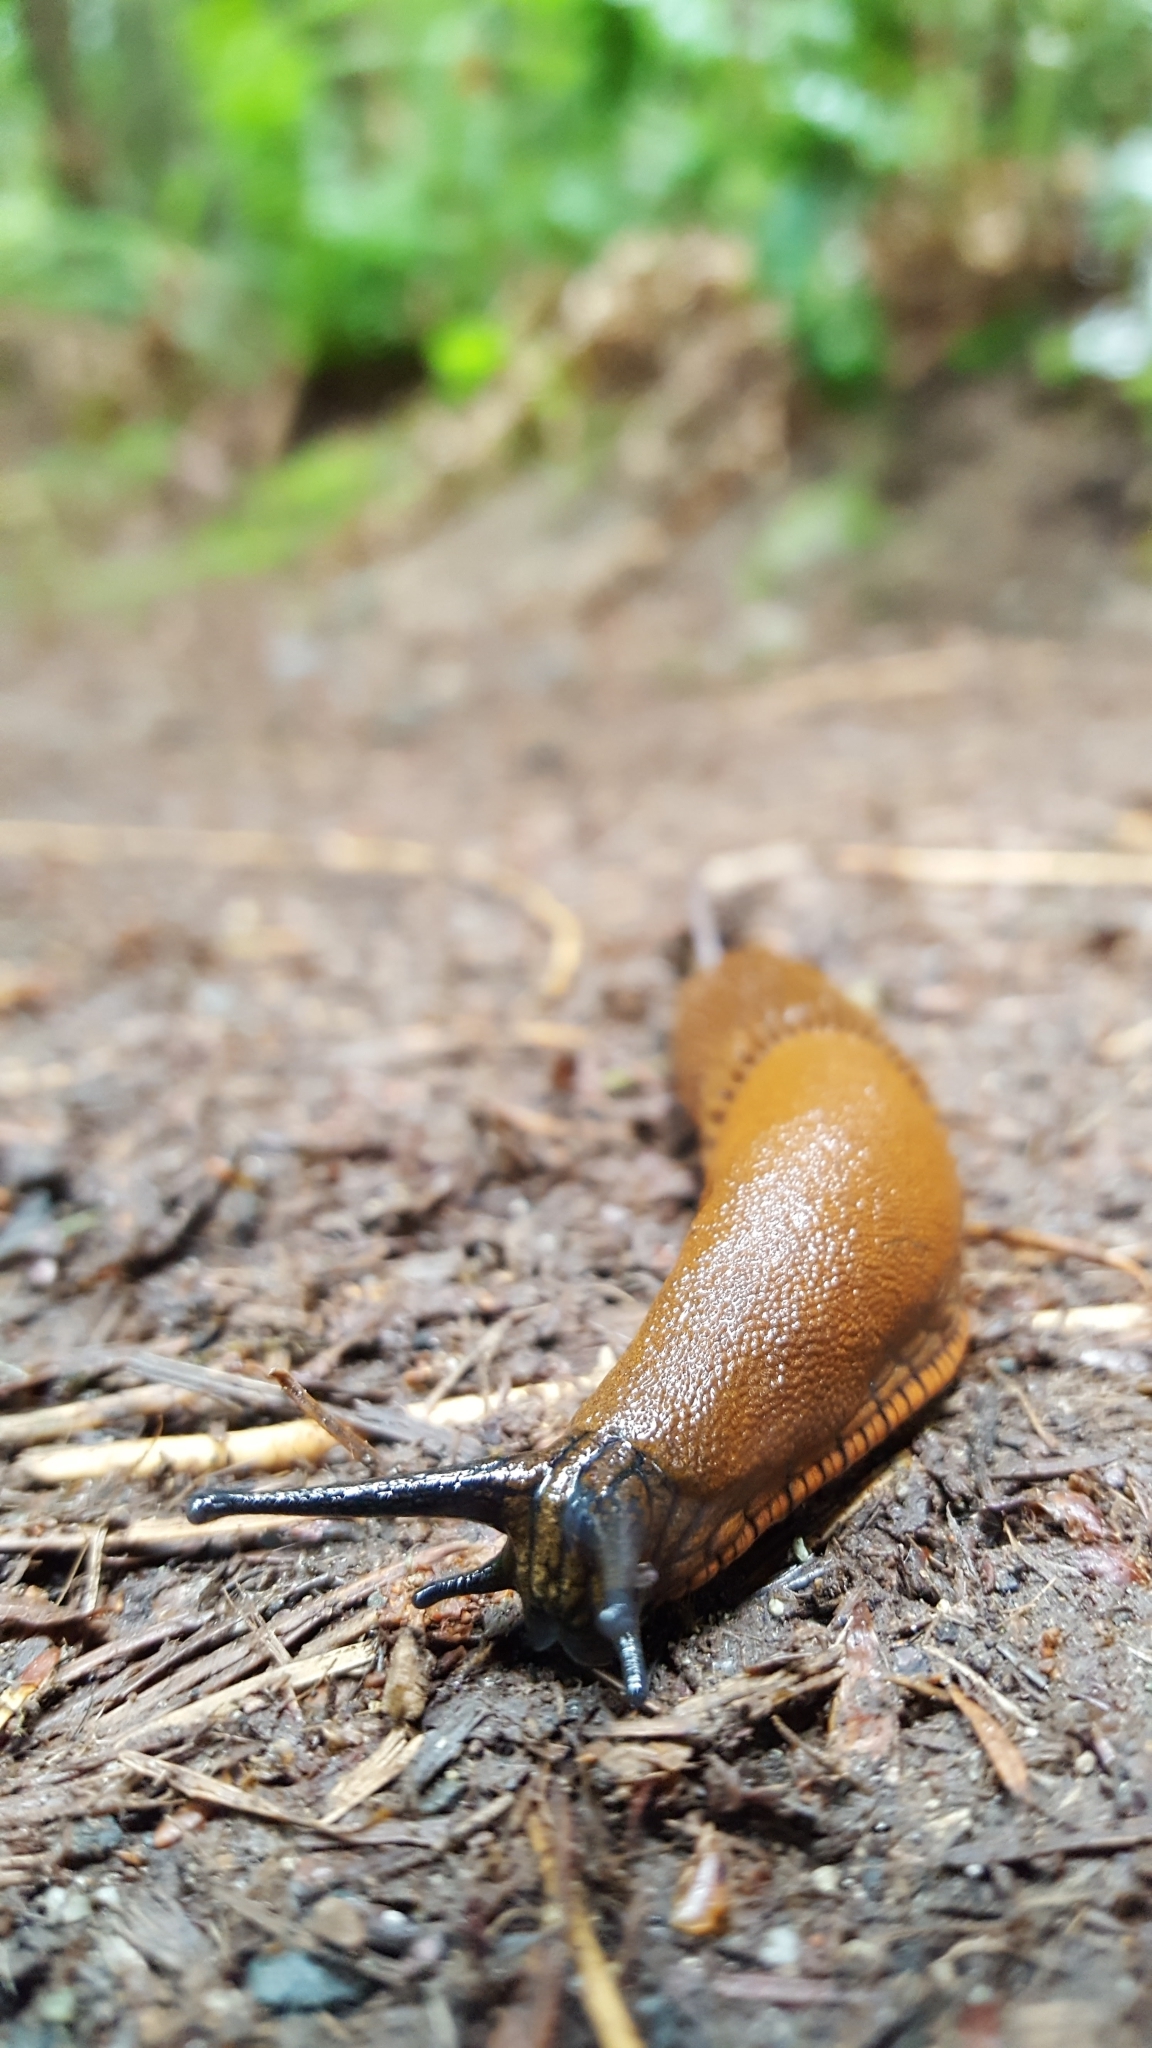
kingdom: Animalia
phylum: Mollusca
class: Gastropoda
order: Stylommatophora
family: Arionidae
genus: Arion
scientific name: Arion
